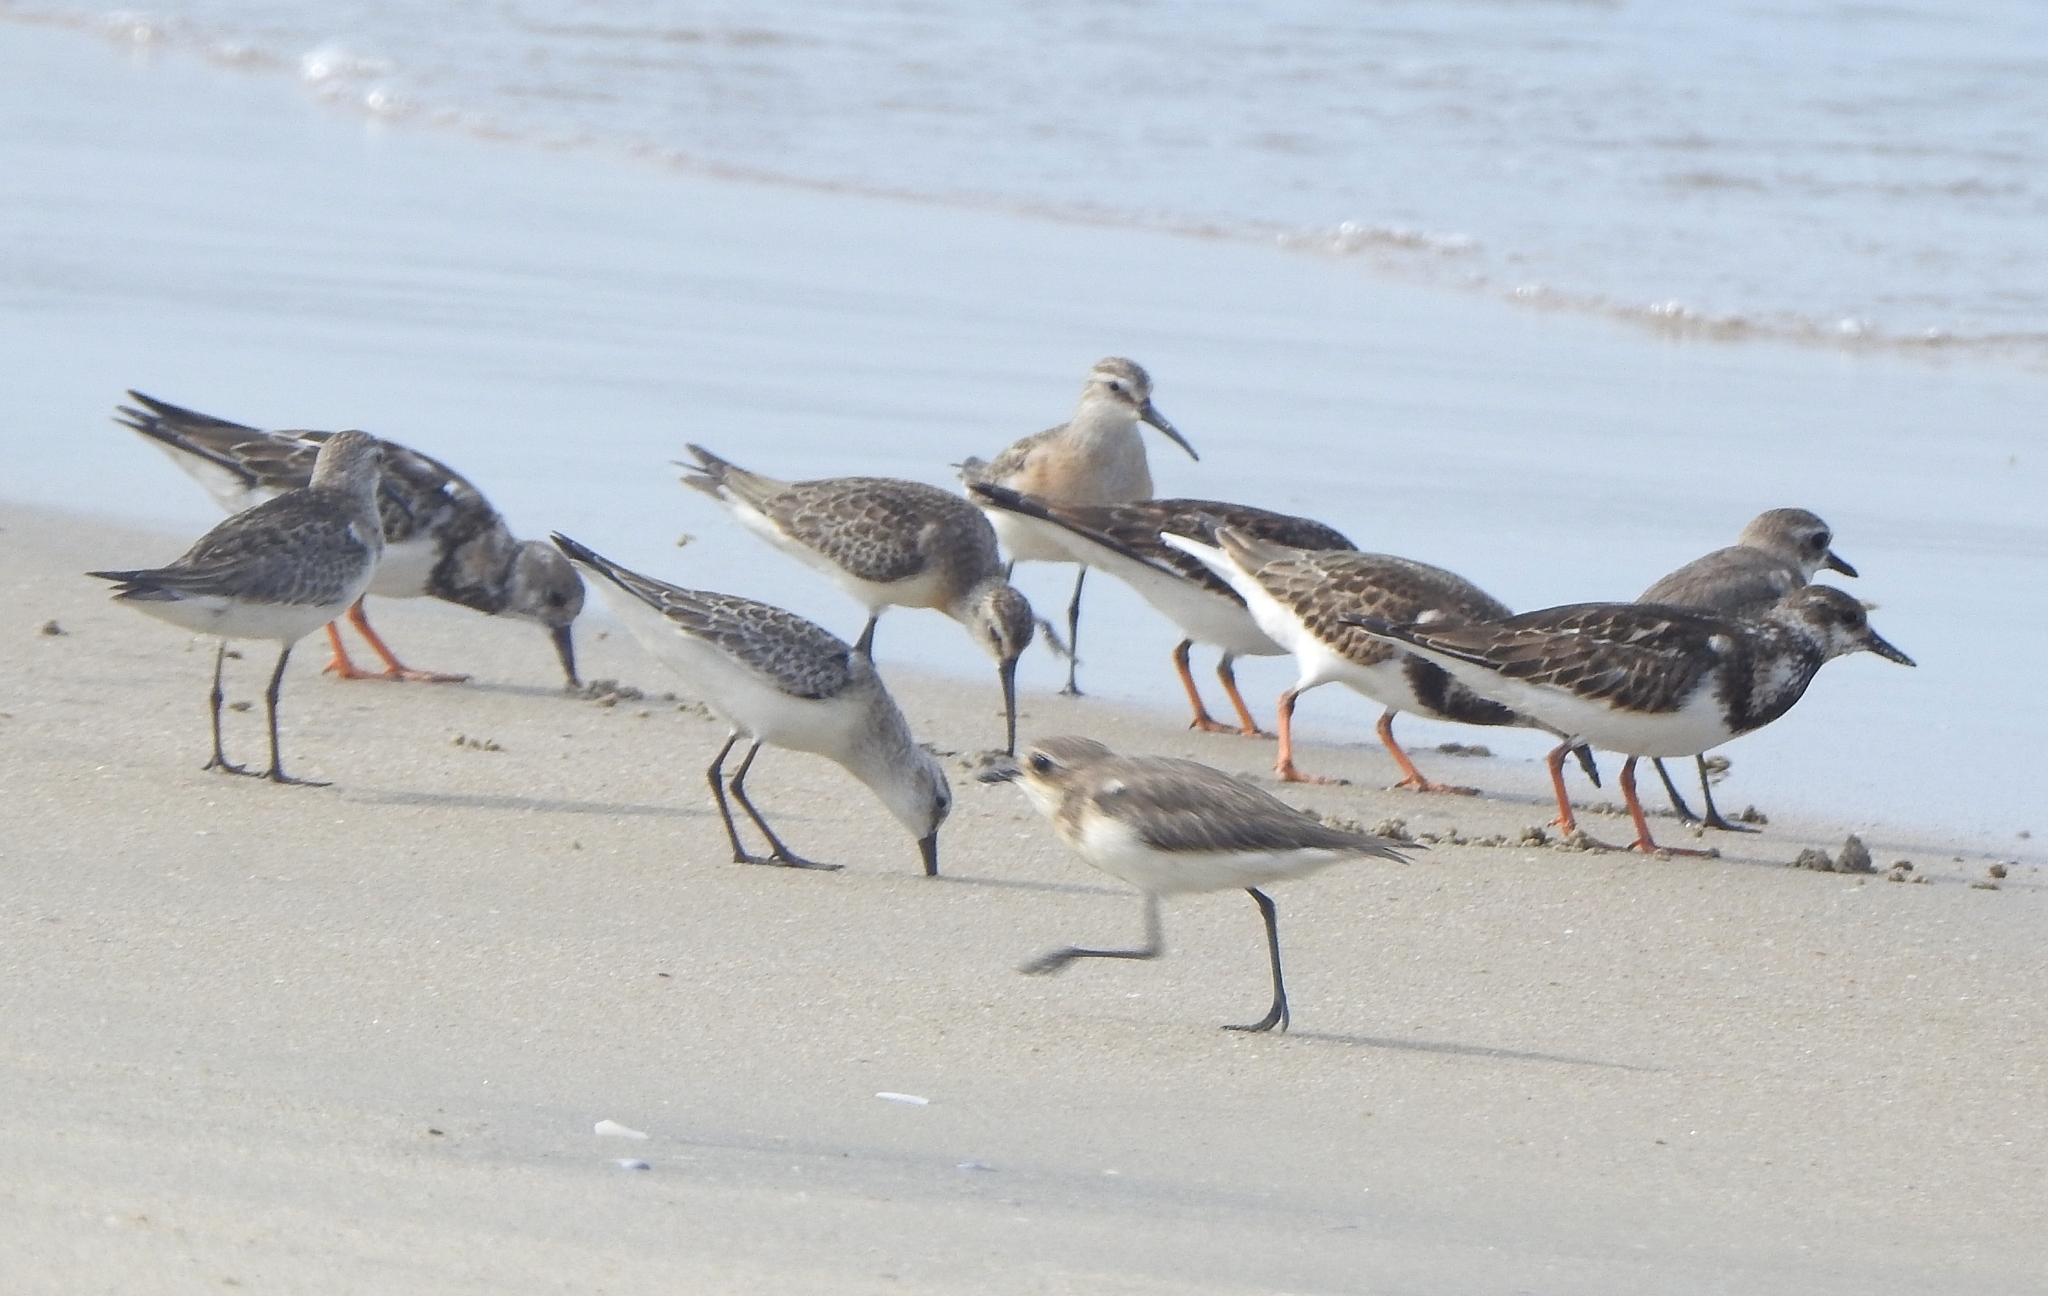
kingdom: Animalia
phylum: Chordata
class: Aves
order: Charadriiformes
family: Scolopacidae
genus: Arenaria
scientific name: Arenaria interpres
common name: Ruddy turnstone
